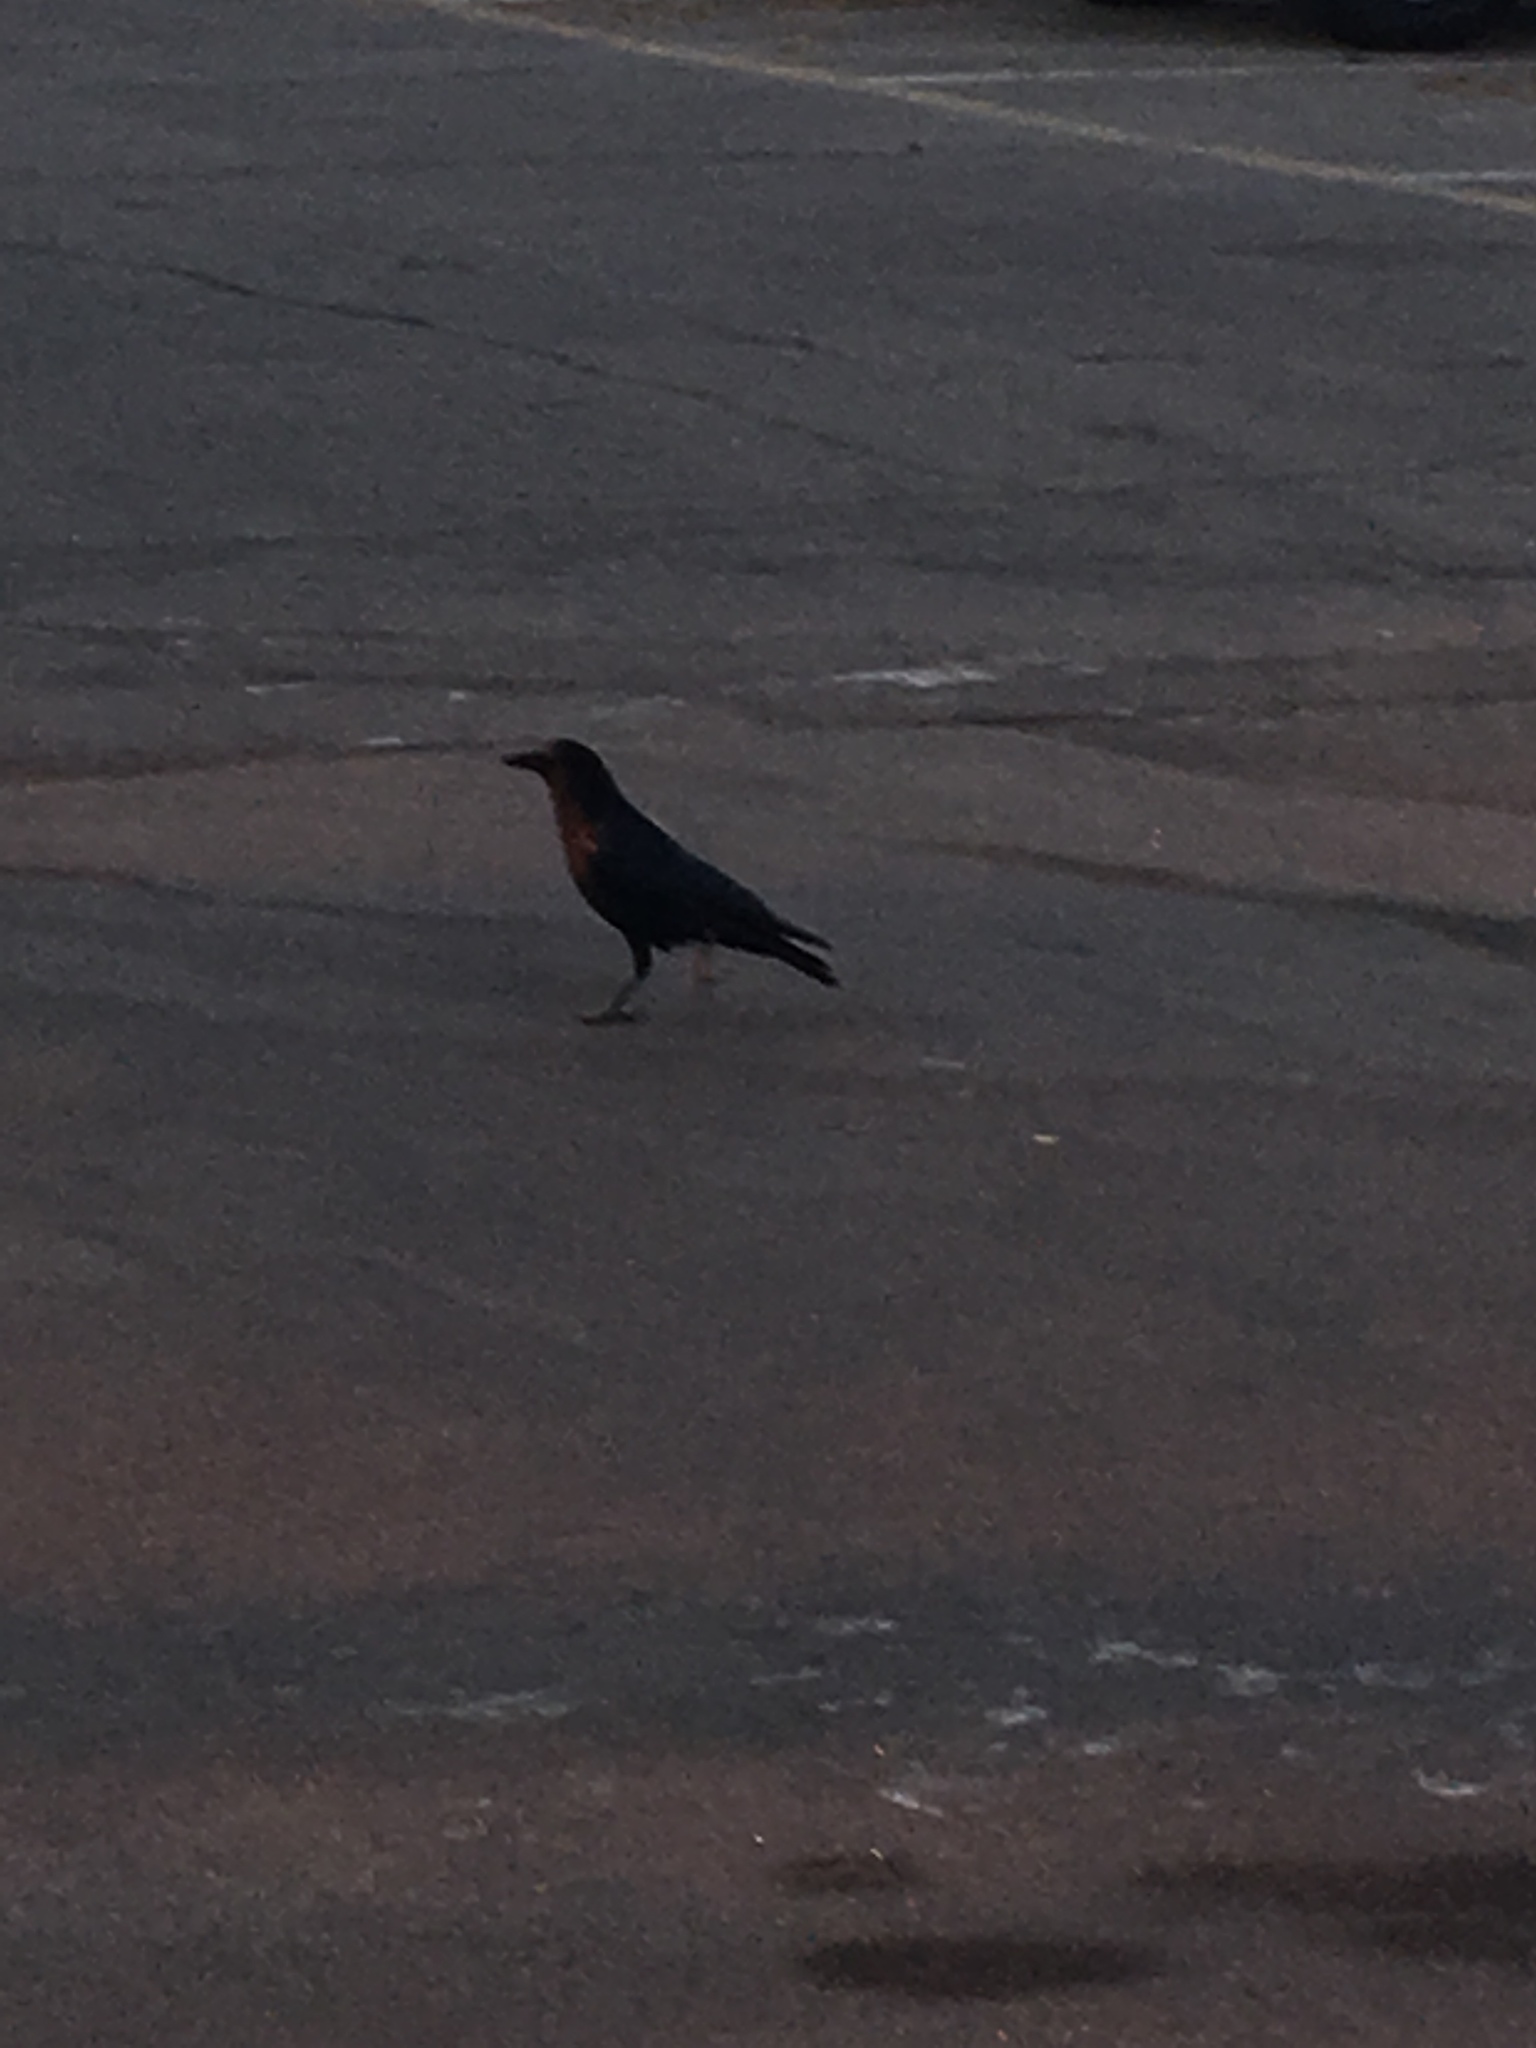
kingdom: Animalia
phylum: Chordata
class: Aves
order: Passeriformes
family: Corvidae
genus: Corvus
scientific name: Corvus brachyrhynchos
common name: American crow
